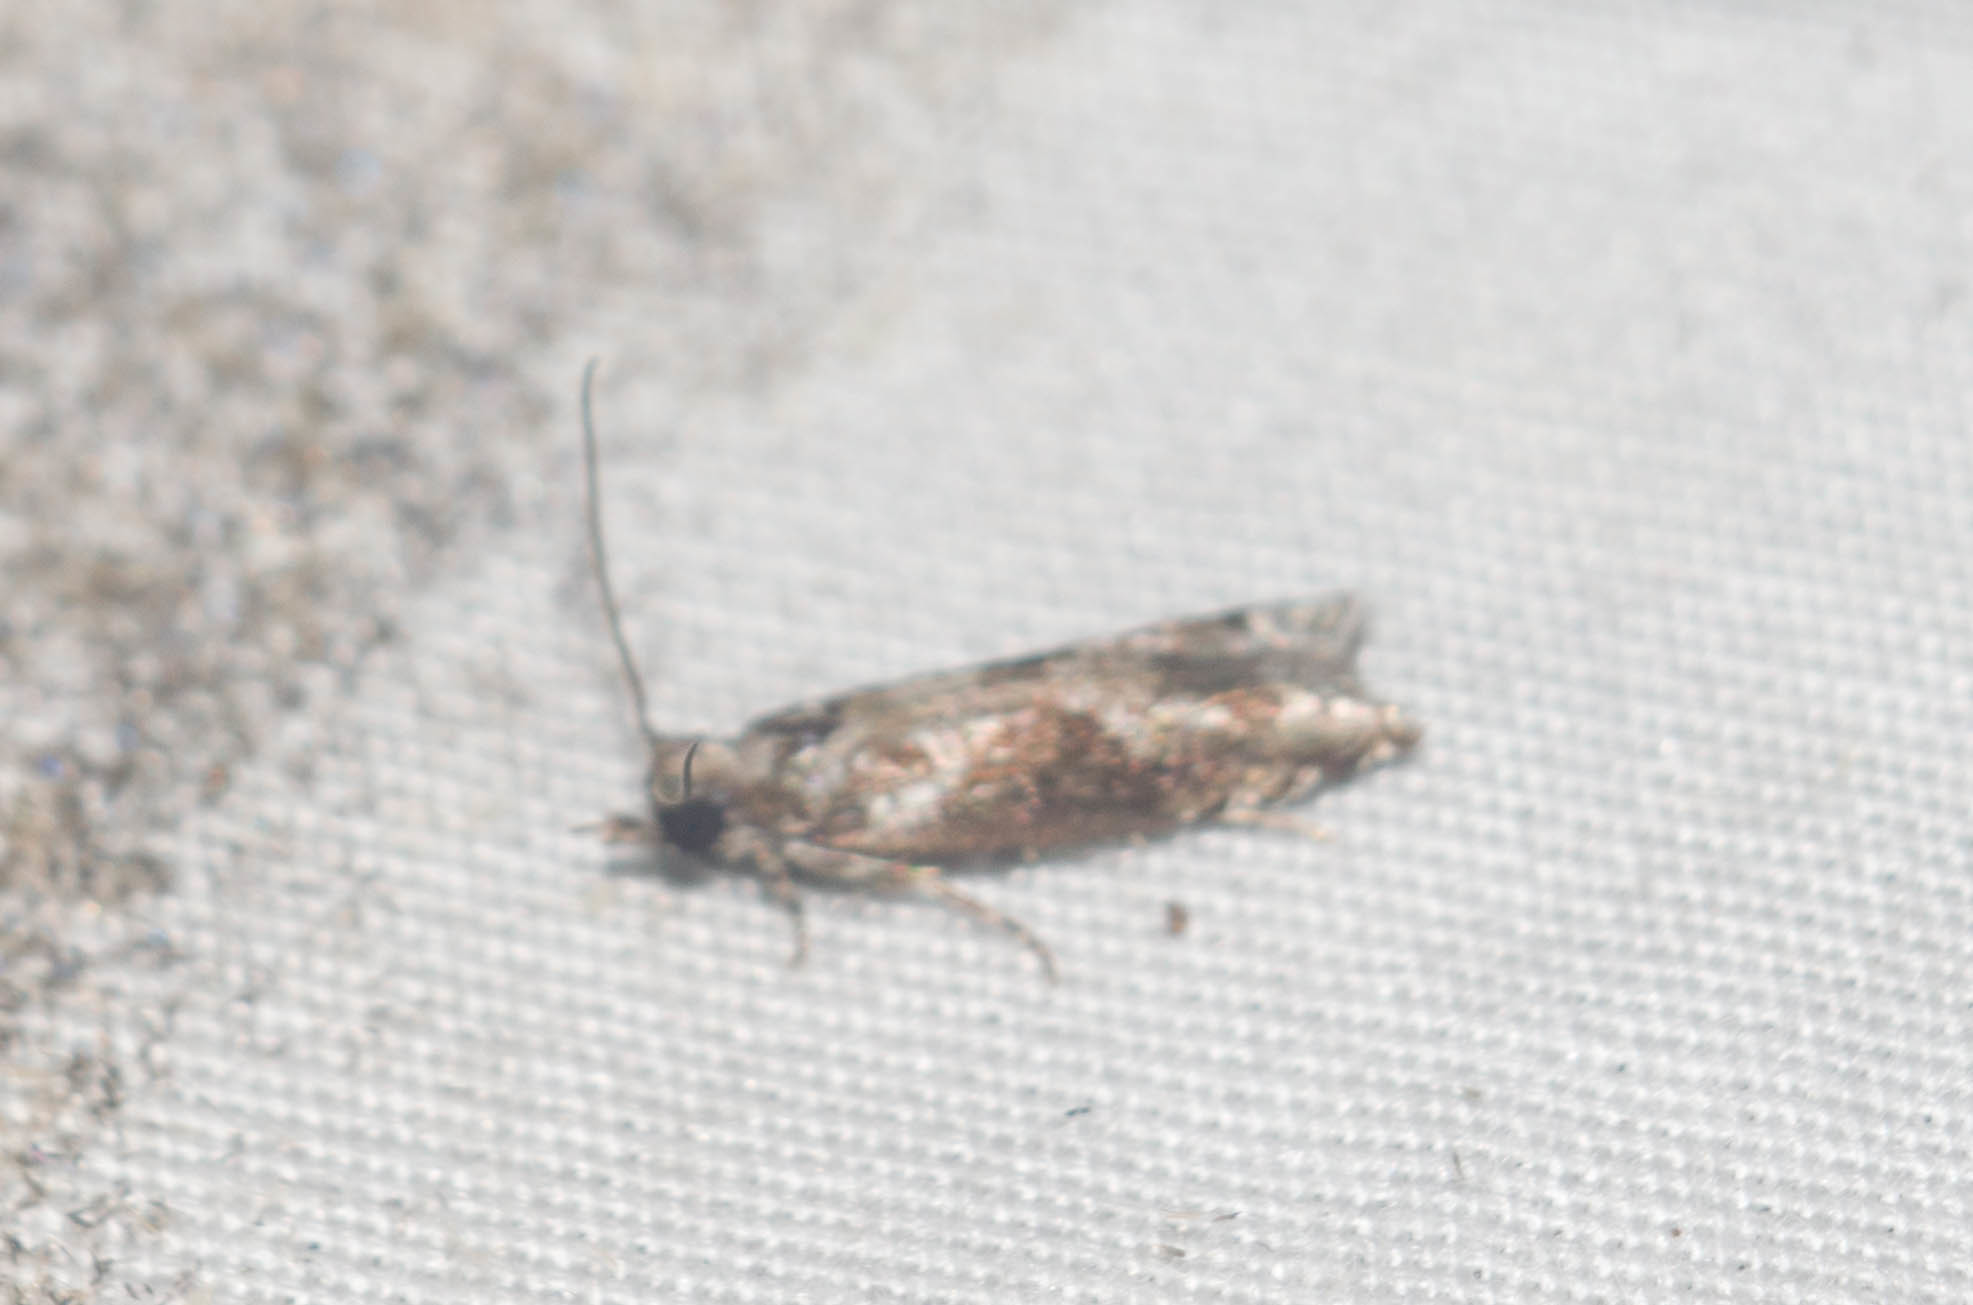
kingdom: Animalia
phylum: Arthropoda
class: Insecta
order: Lepidoptera
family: Tortricidae
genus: Eccoptocera
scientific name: Eccoptocera foetorivorans
